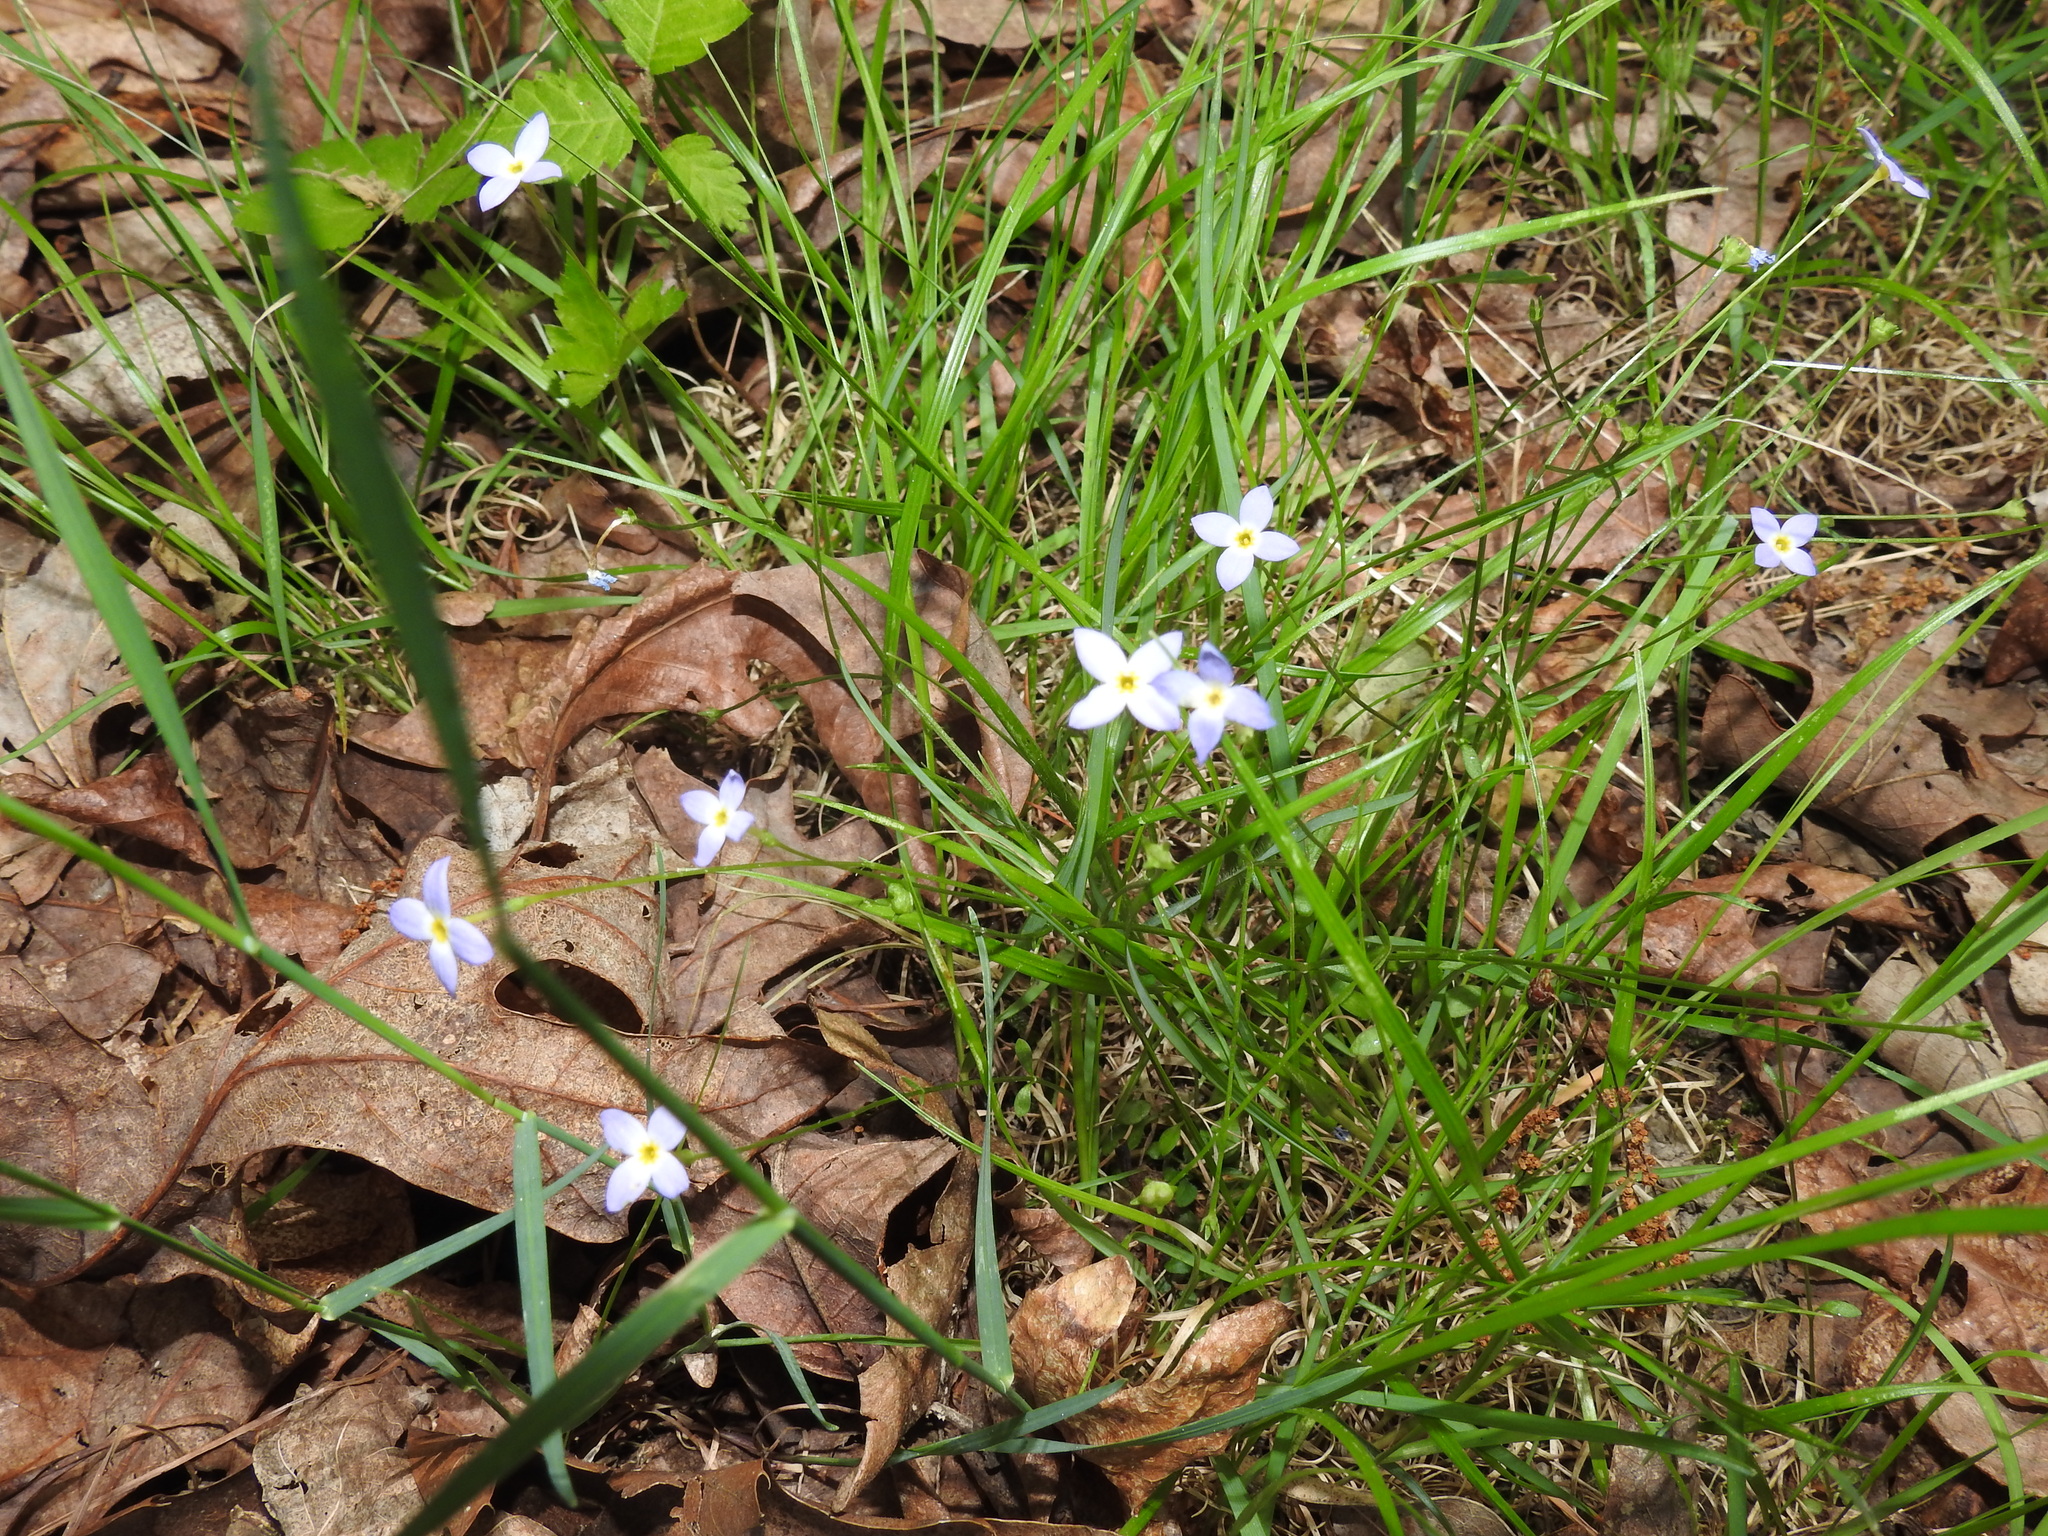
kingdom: Plantae
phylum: Tracheophyta
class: Magnoliopsida
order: Gentianales
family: Rubiaceae
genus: Houstonia
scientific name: Houstonia caerulea
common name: Bluets
